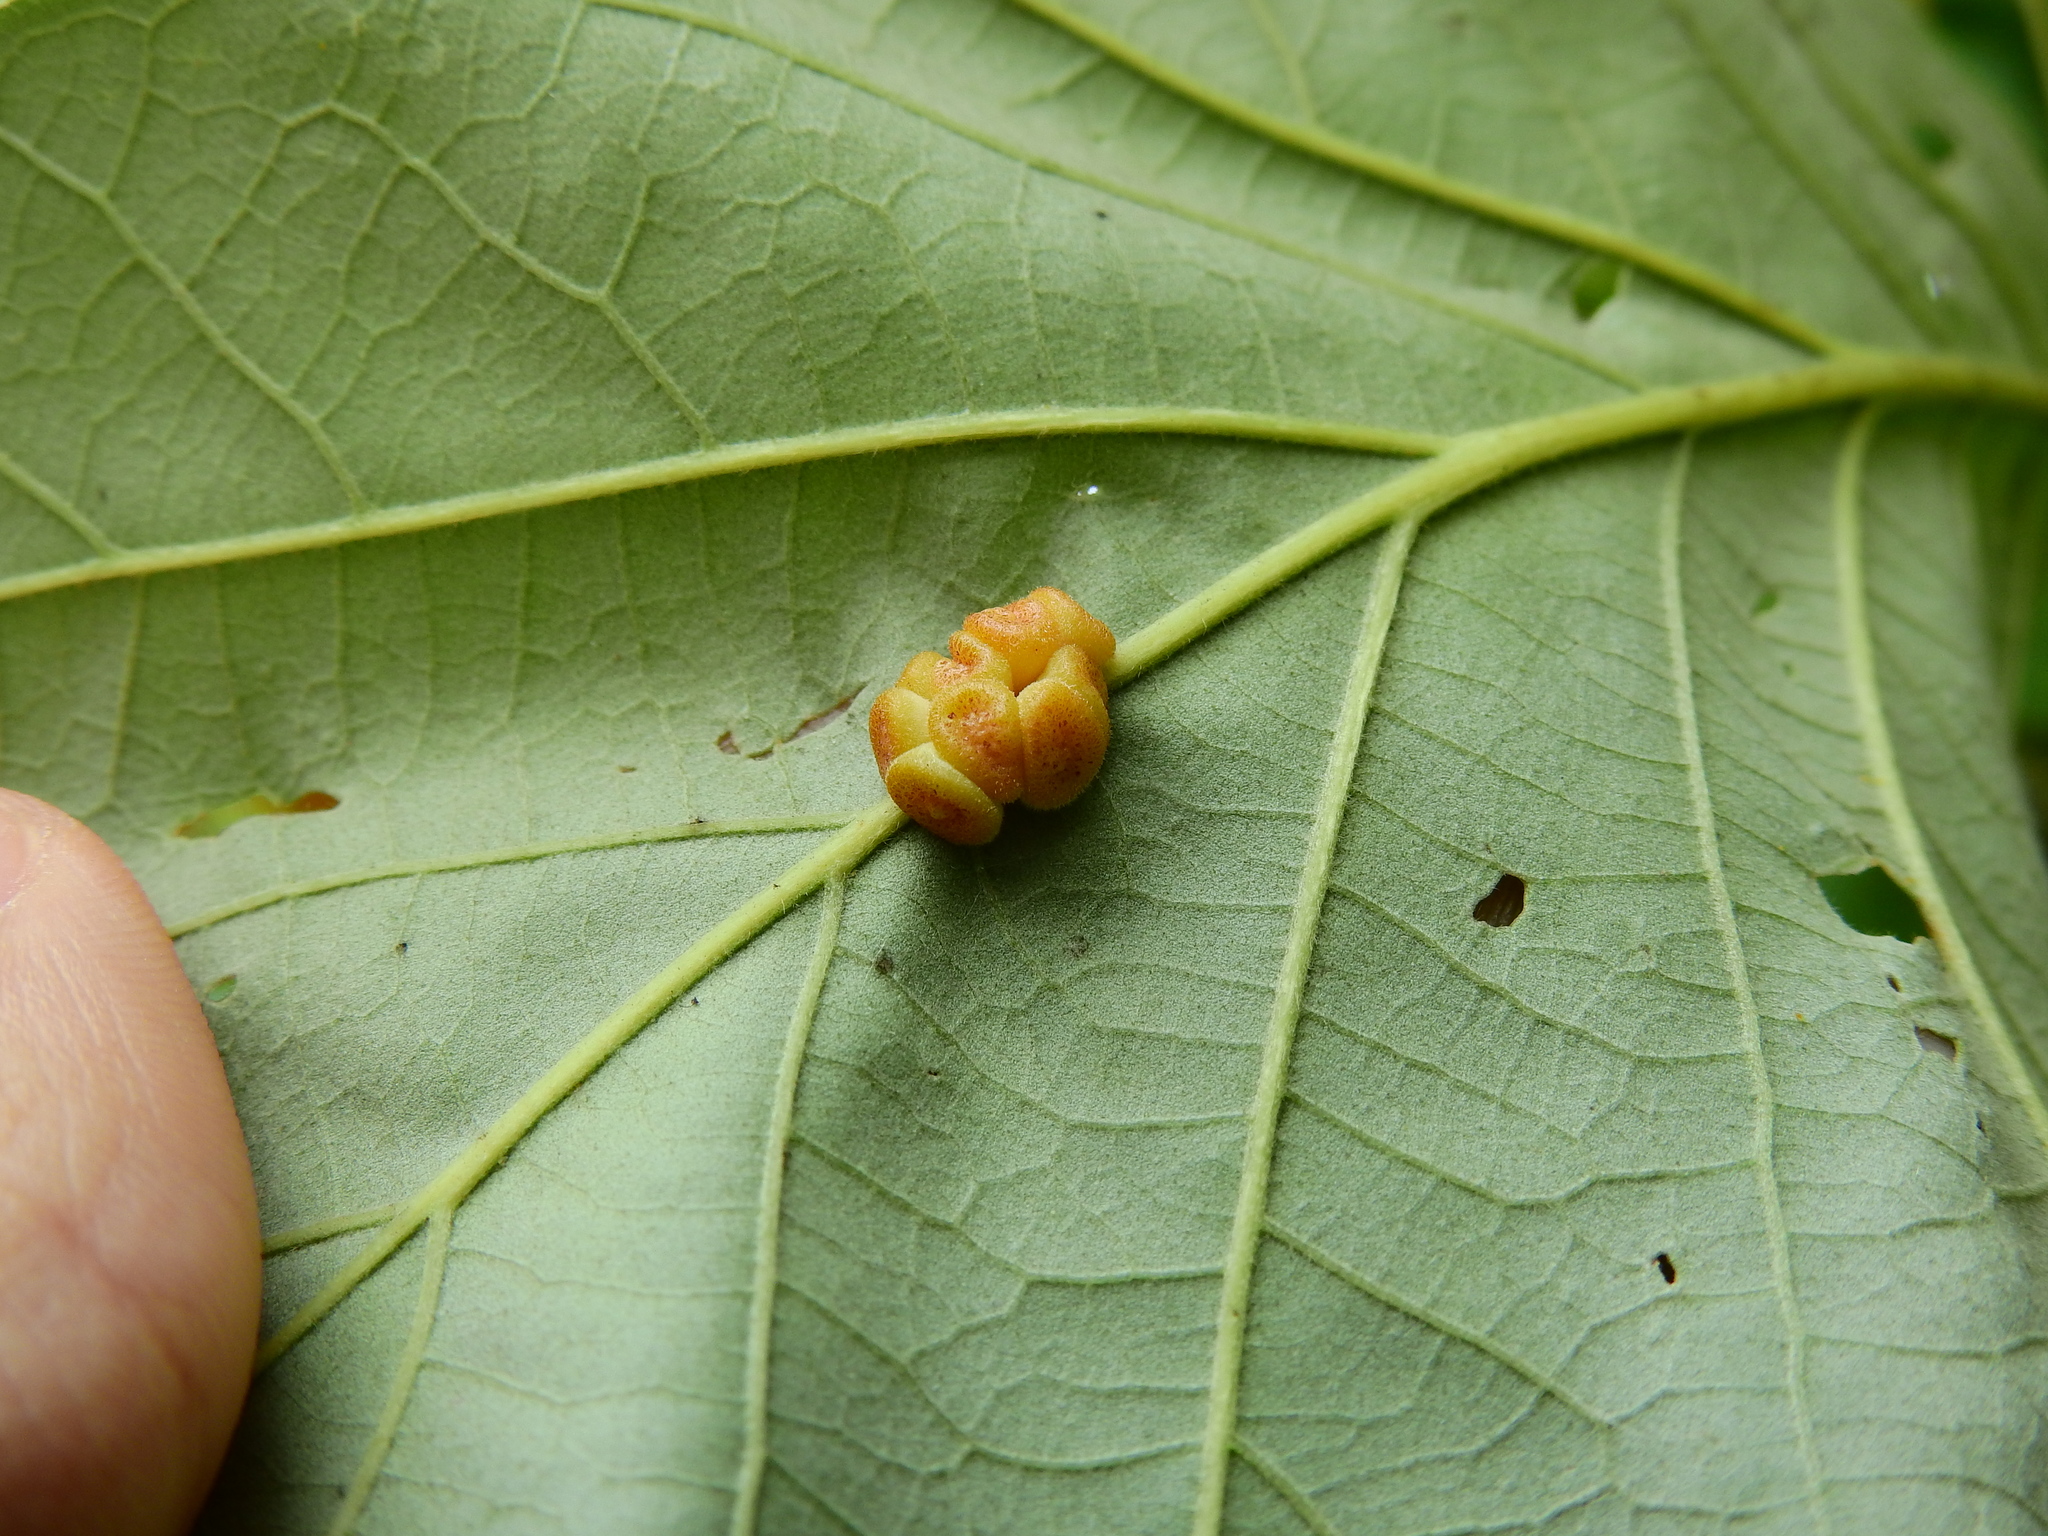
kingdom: Animalia
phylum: Arthropoda
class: Insecta
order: Hymenoptera
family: Cynipidae
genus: Andricus
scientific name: Andricus
